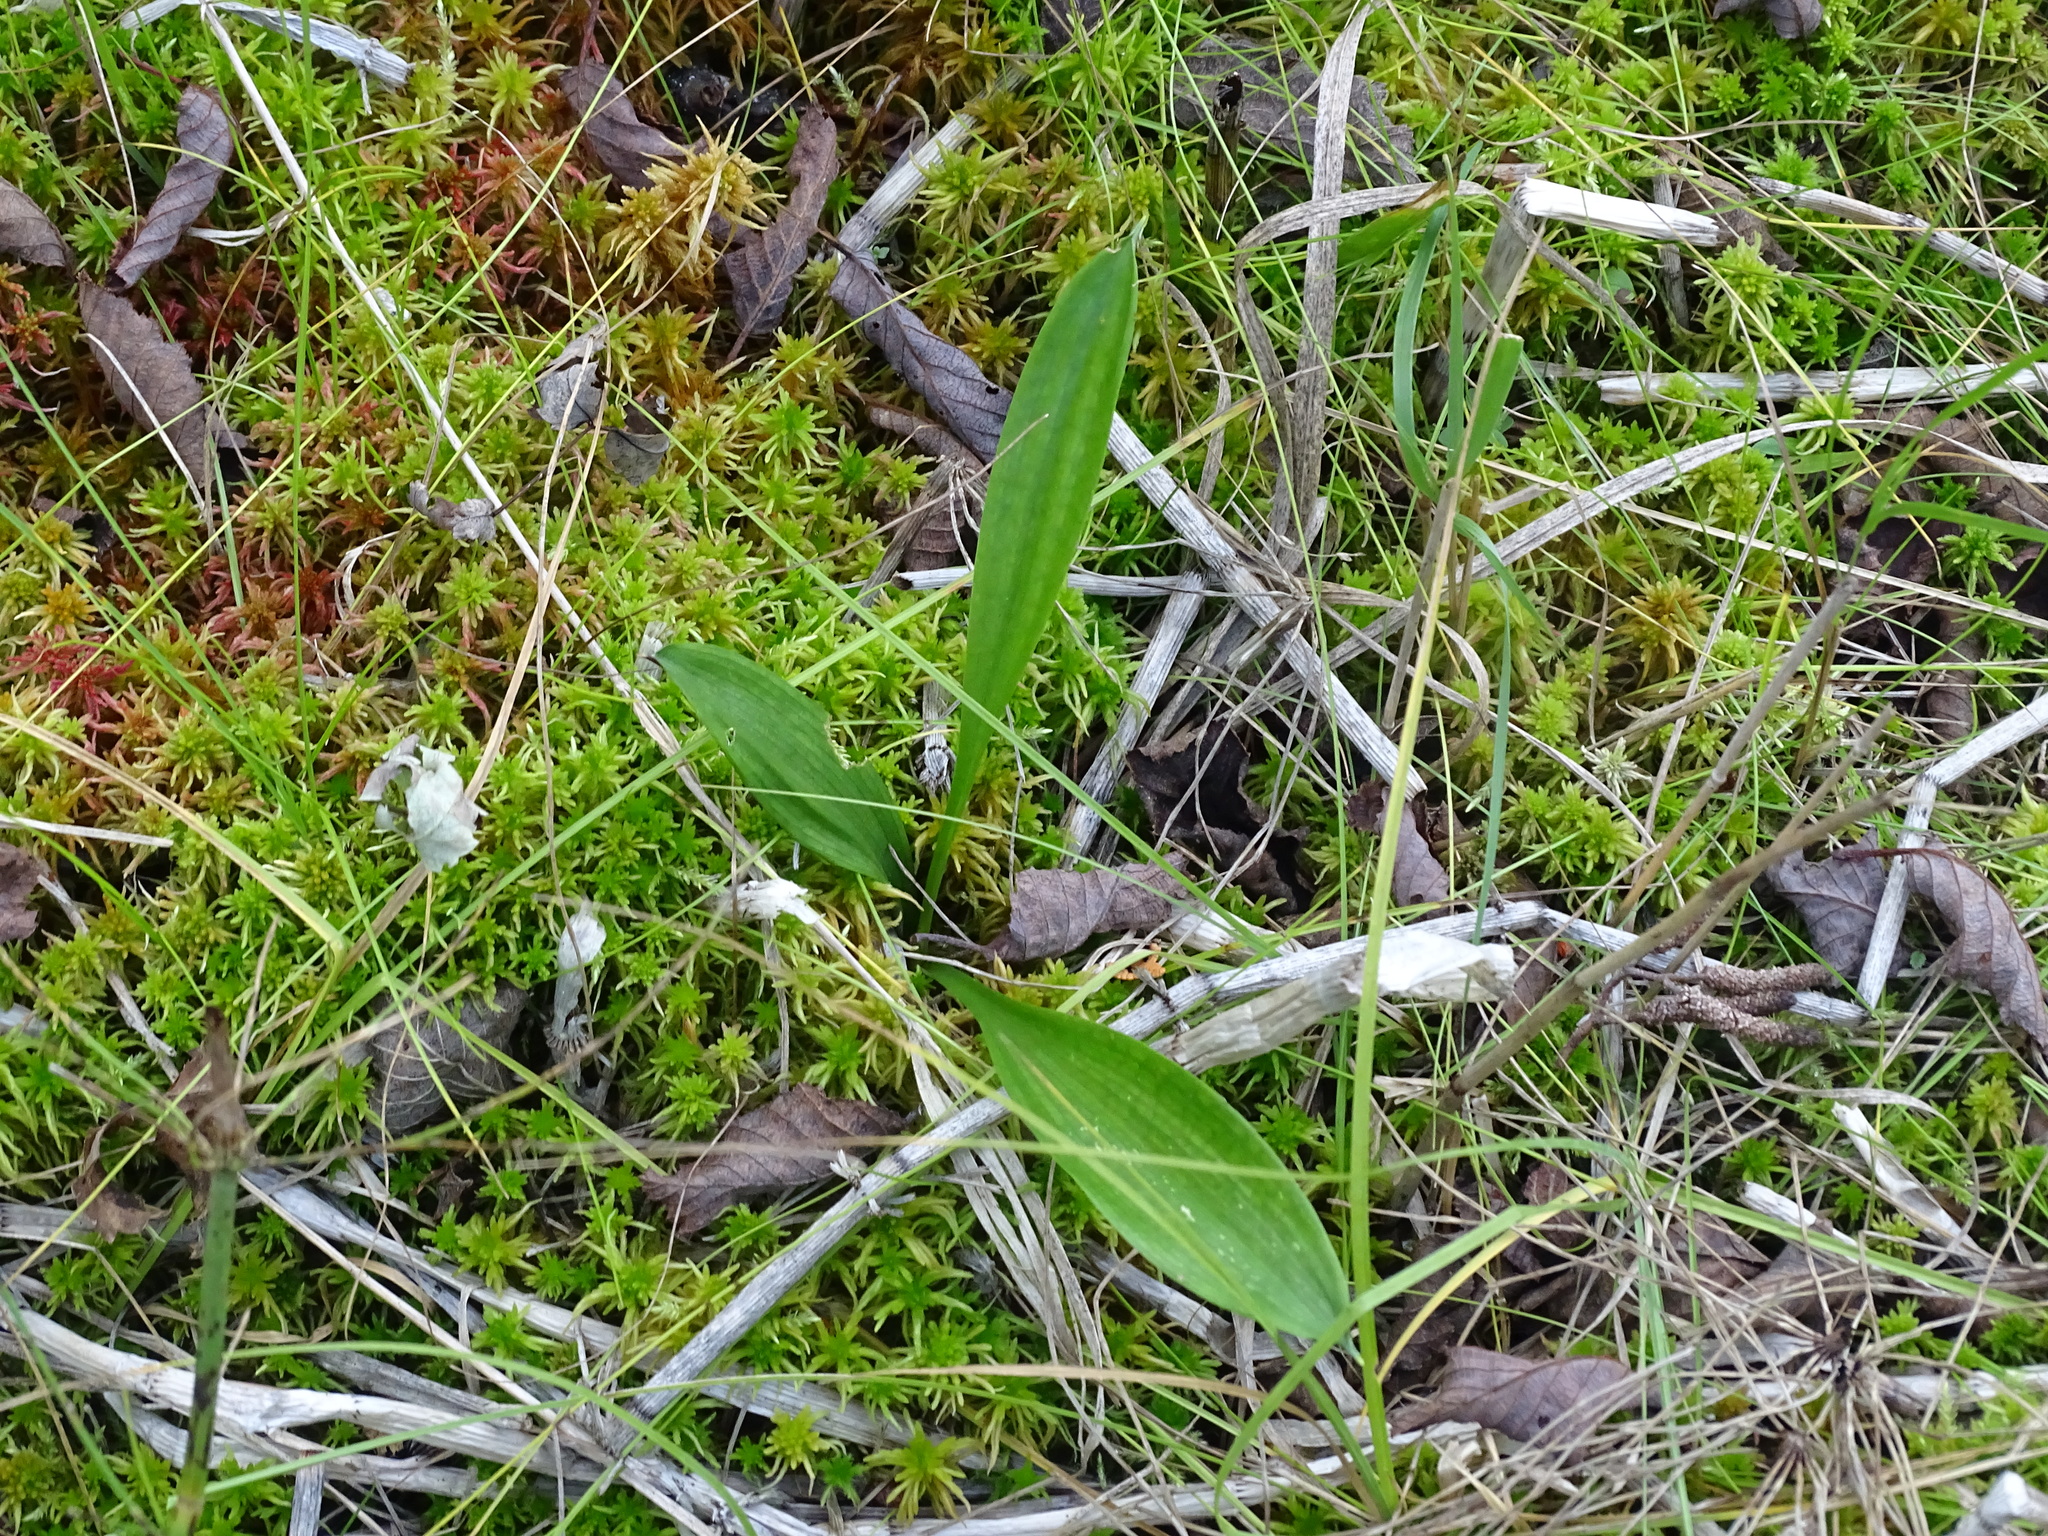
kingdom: Plantae
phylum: Tracheophyta
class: Liliopsida
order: Asparagales
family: Asparagaceae
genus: Maianthemum
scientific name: Maianthemum trifolium
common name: Swamp false solomon's seal
